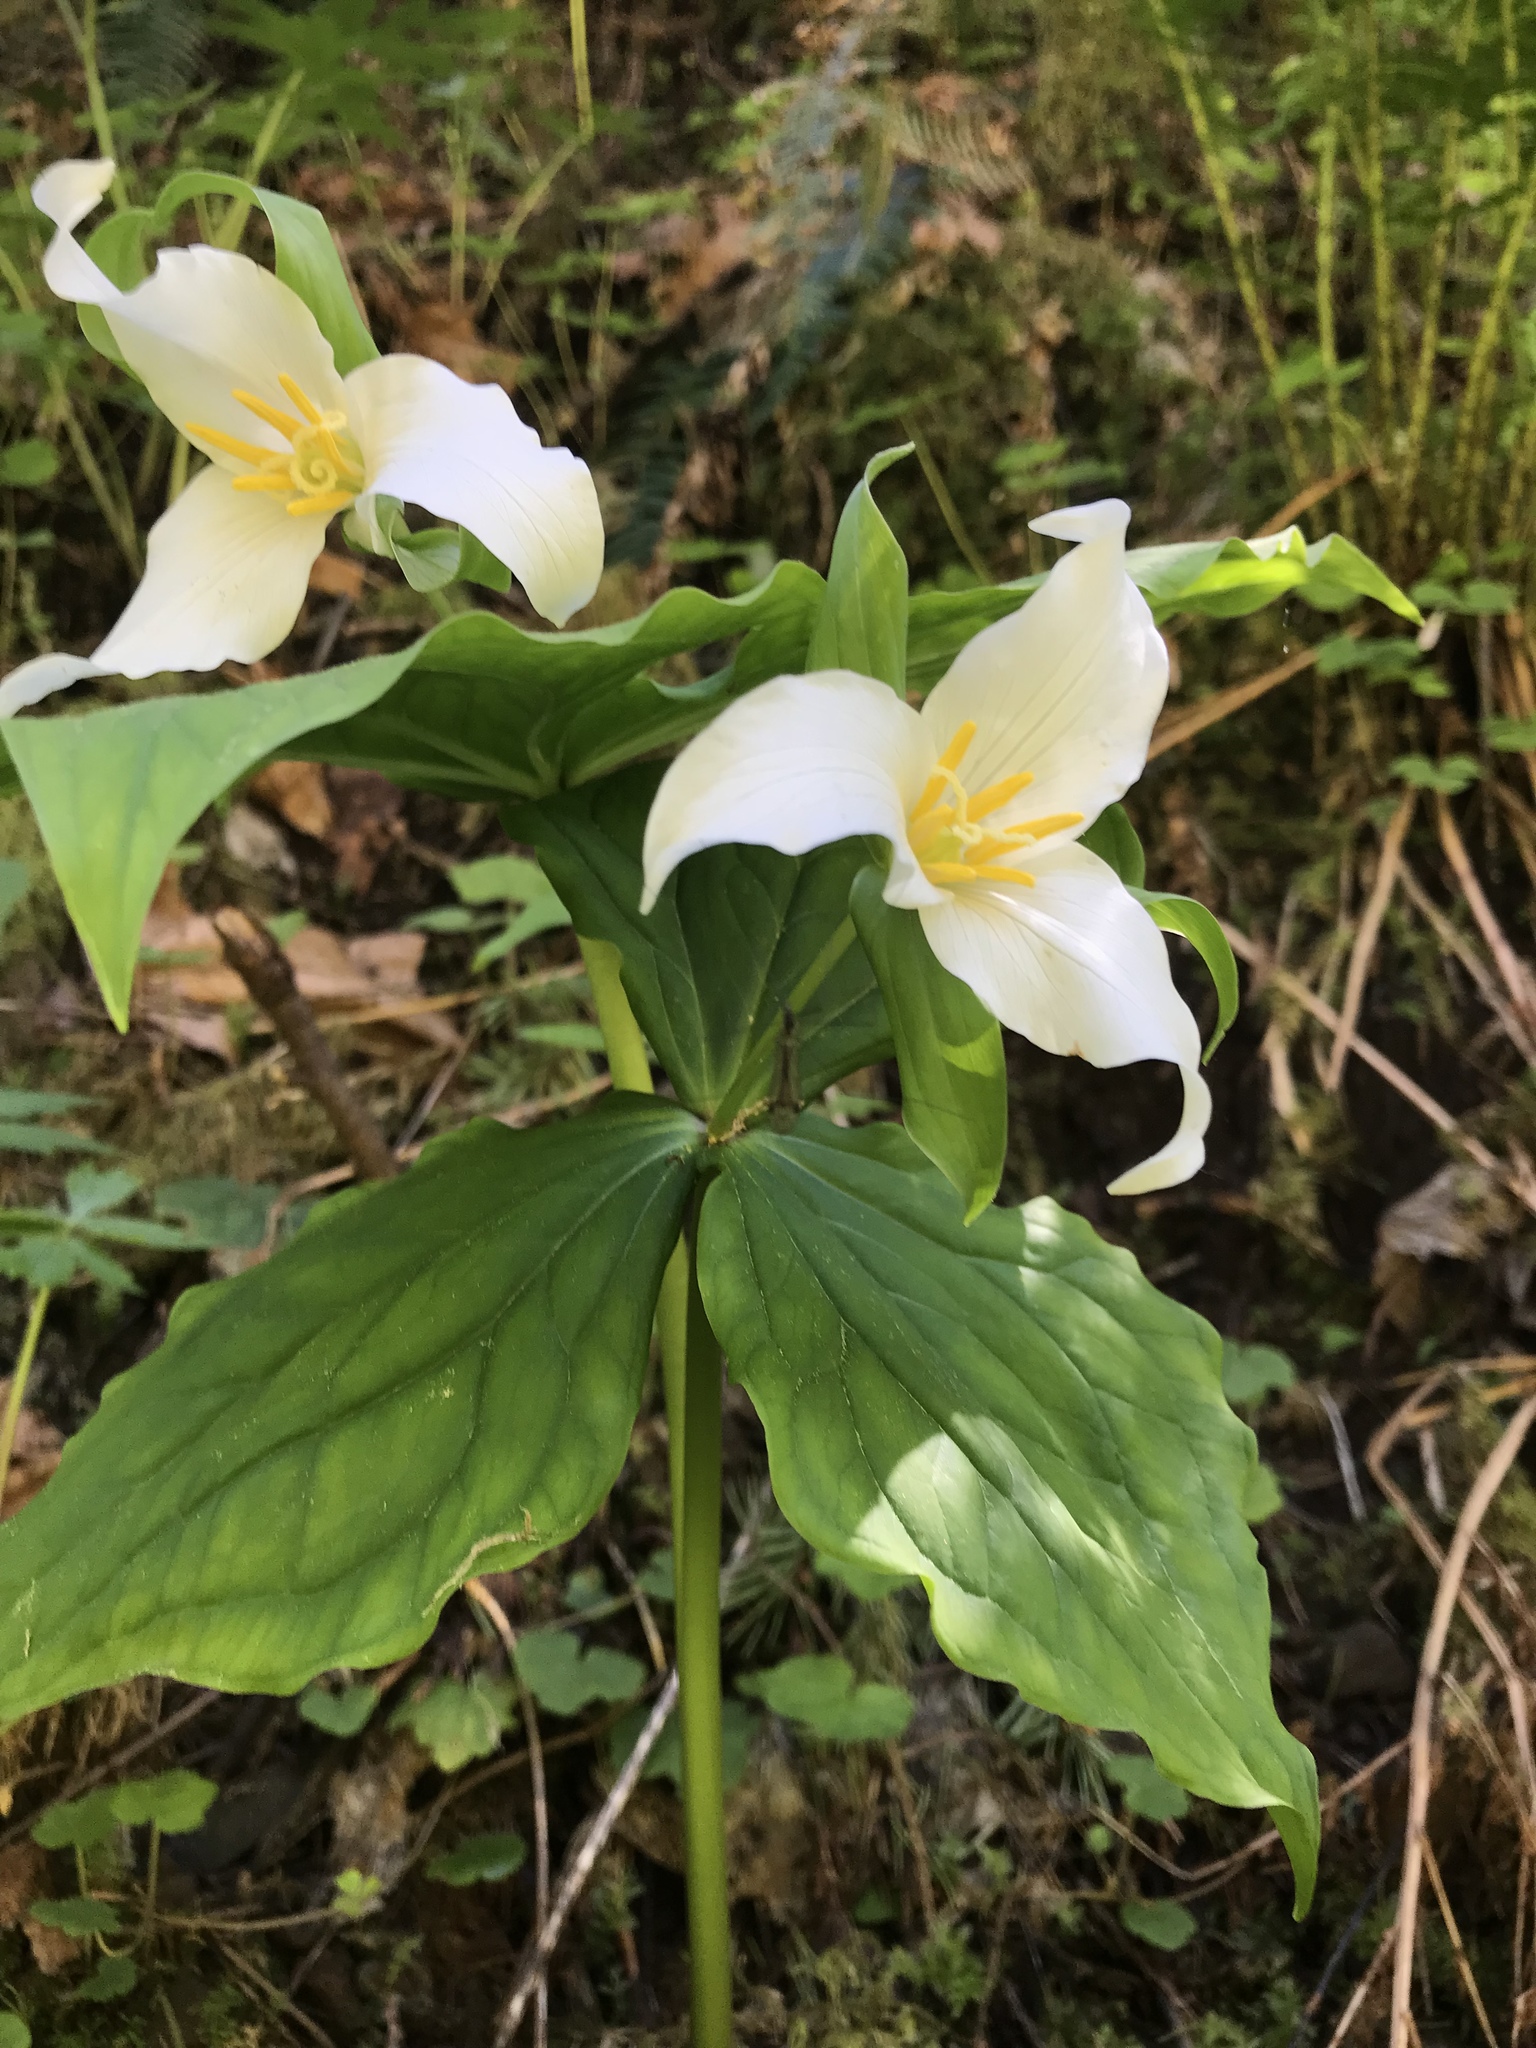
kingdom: Plantae
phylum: Tracheophyta
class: Liliopsida
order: Liliales
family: Melanthiaceae
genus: Trillium
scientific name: Trillium ovatum
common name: Pacific trillium
